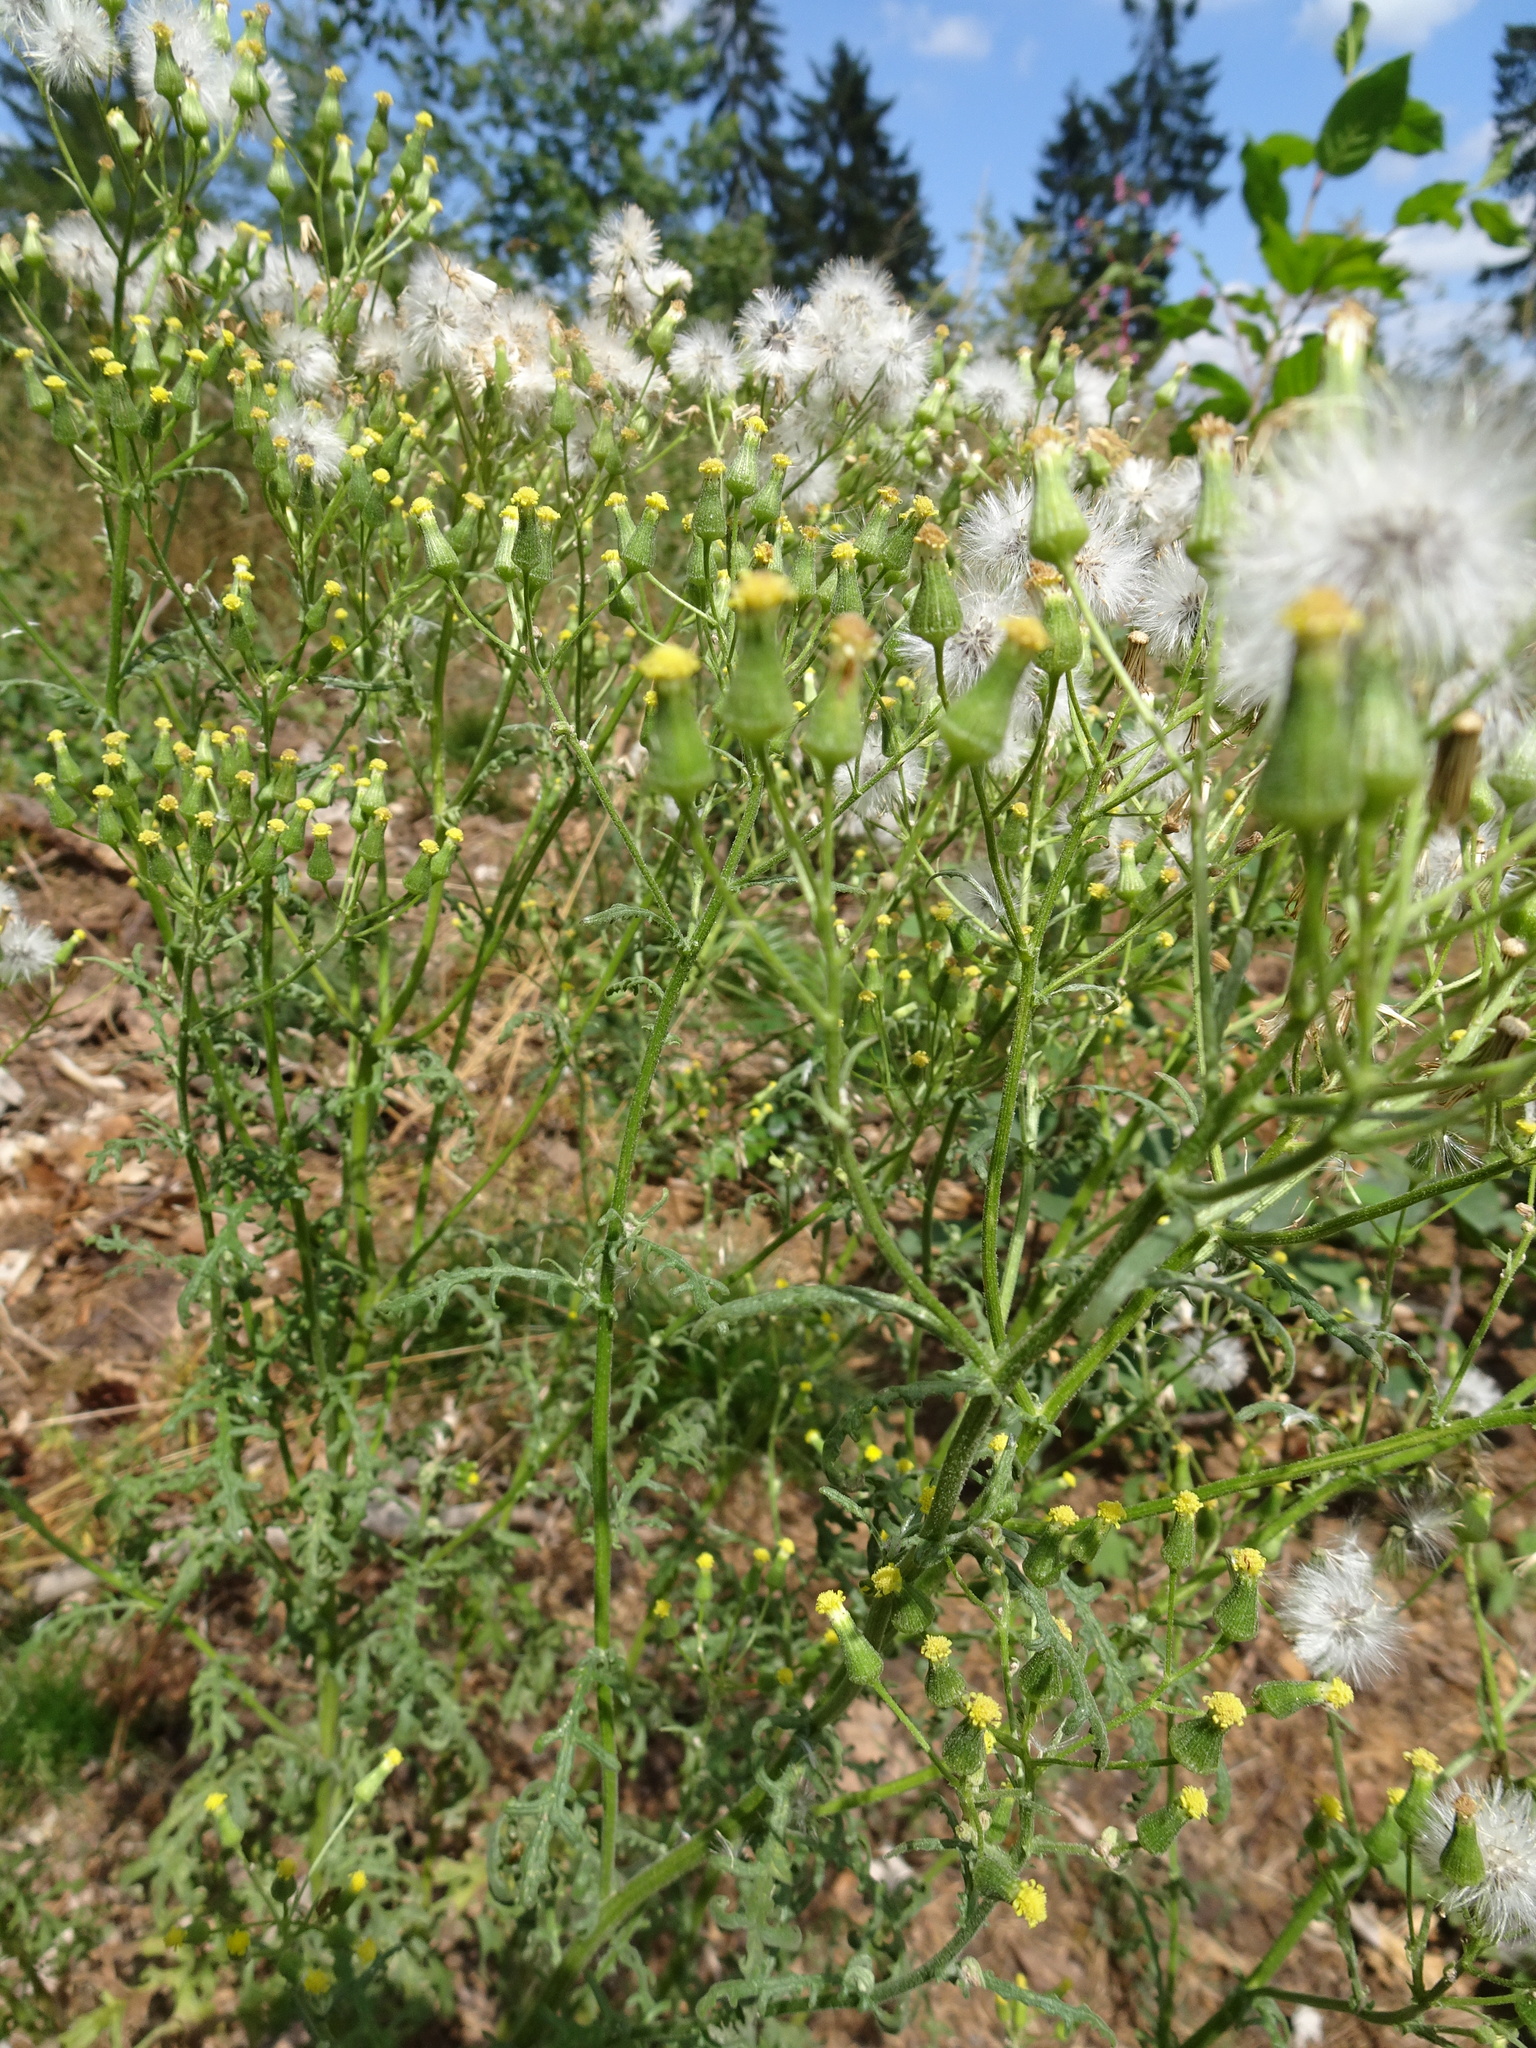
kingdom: Plantae
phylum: Tracheophyta
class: Magnoliopsida
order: Asterales
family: Asteraceae
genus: Senecio
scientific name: Senecio sylvaticus
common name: Woodland ragwort
